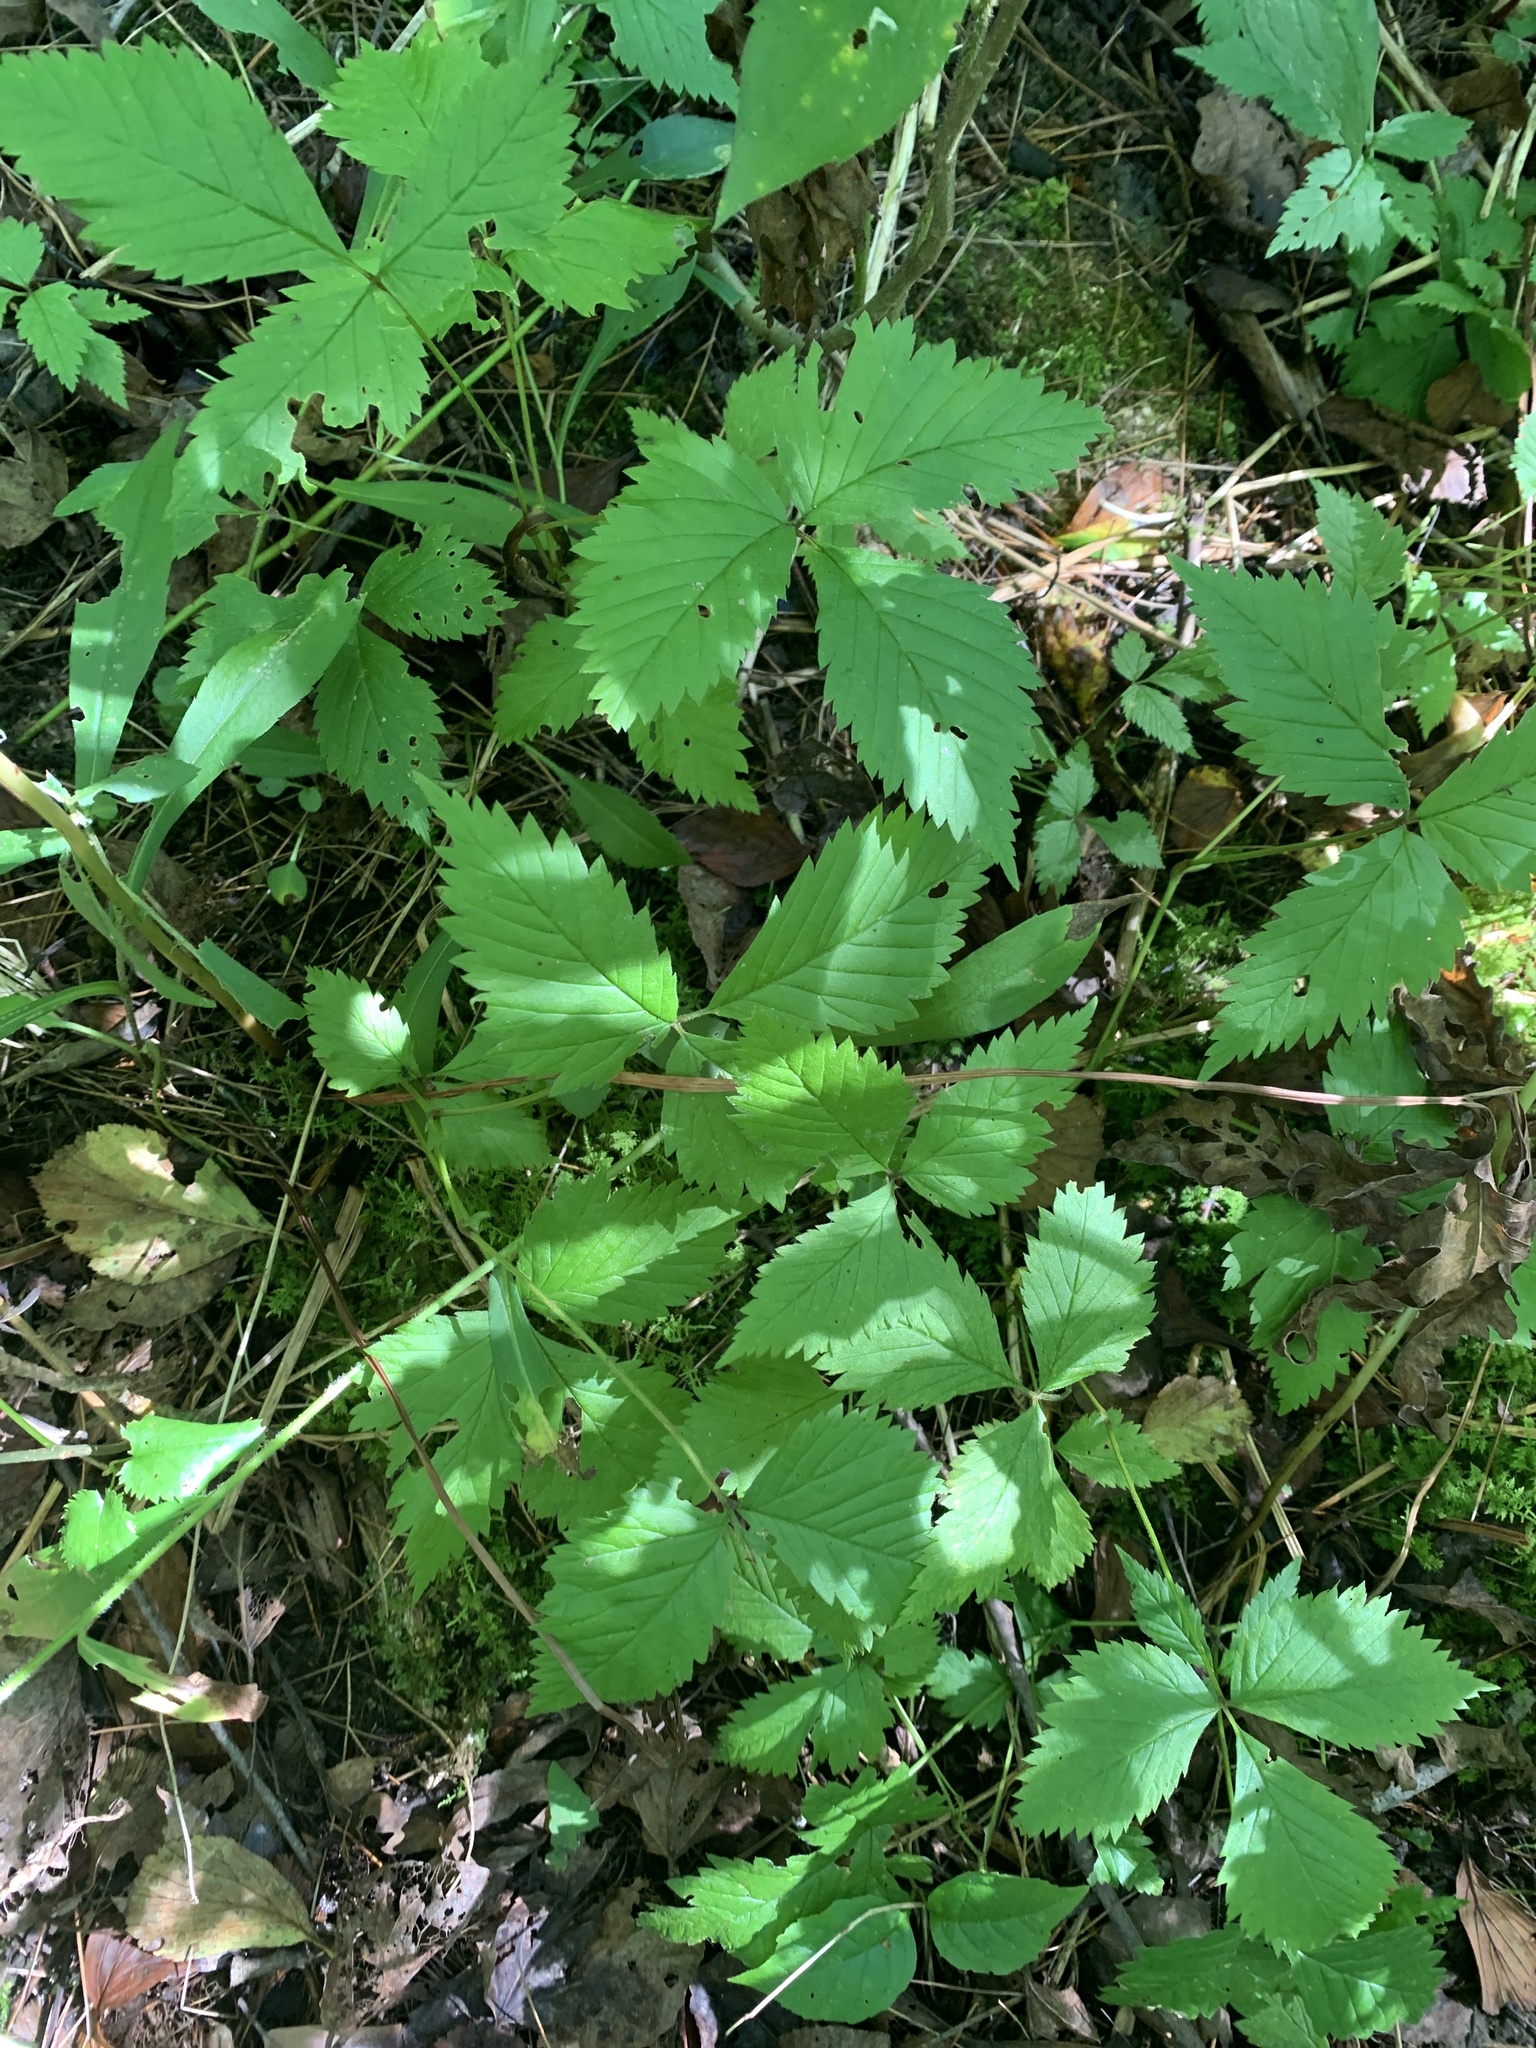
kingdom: Plantae
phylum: Tracheophyta
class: Magnoliopsida
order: Rosales
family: Rosaceae
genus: Rubus
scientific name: Rubus pubescens
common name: Dwarf raspberry
